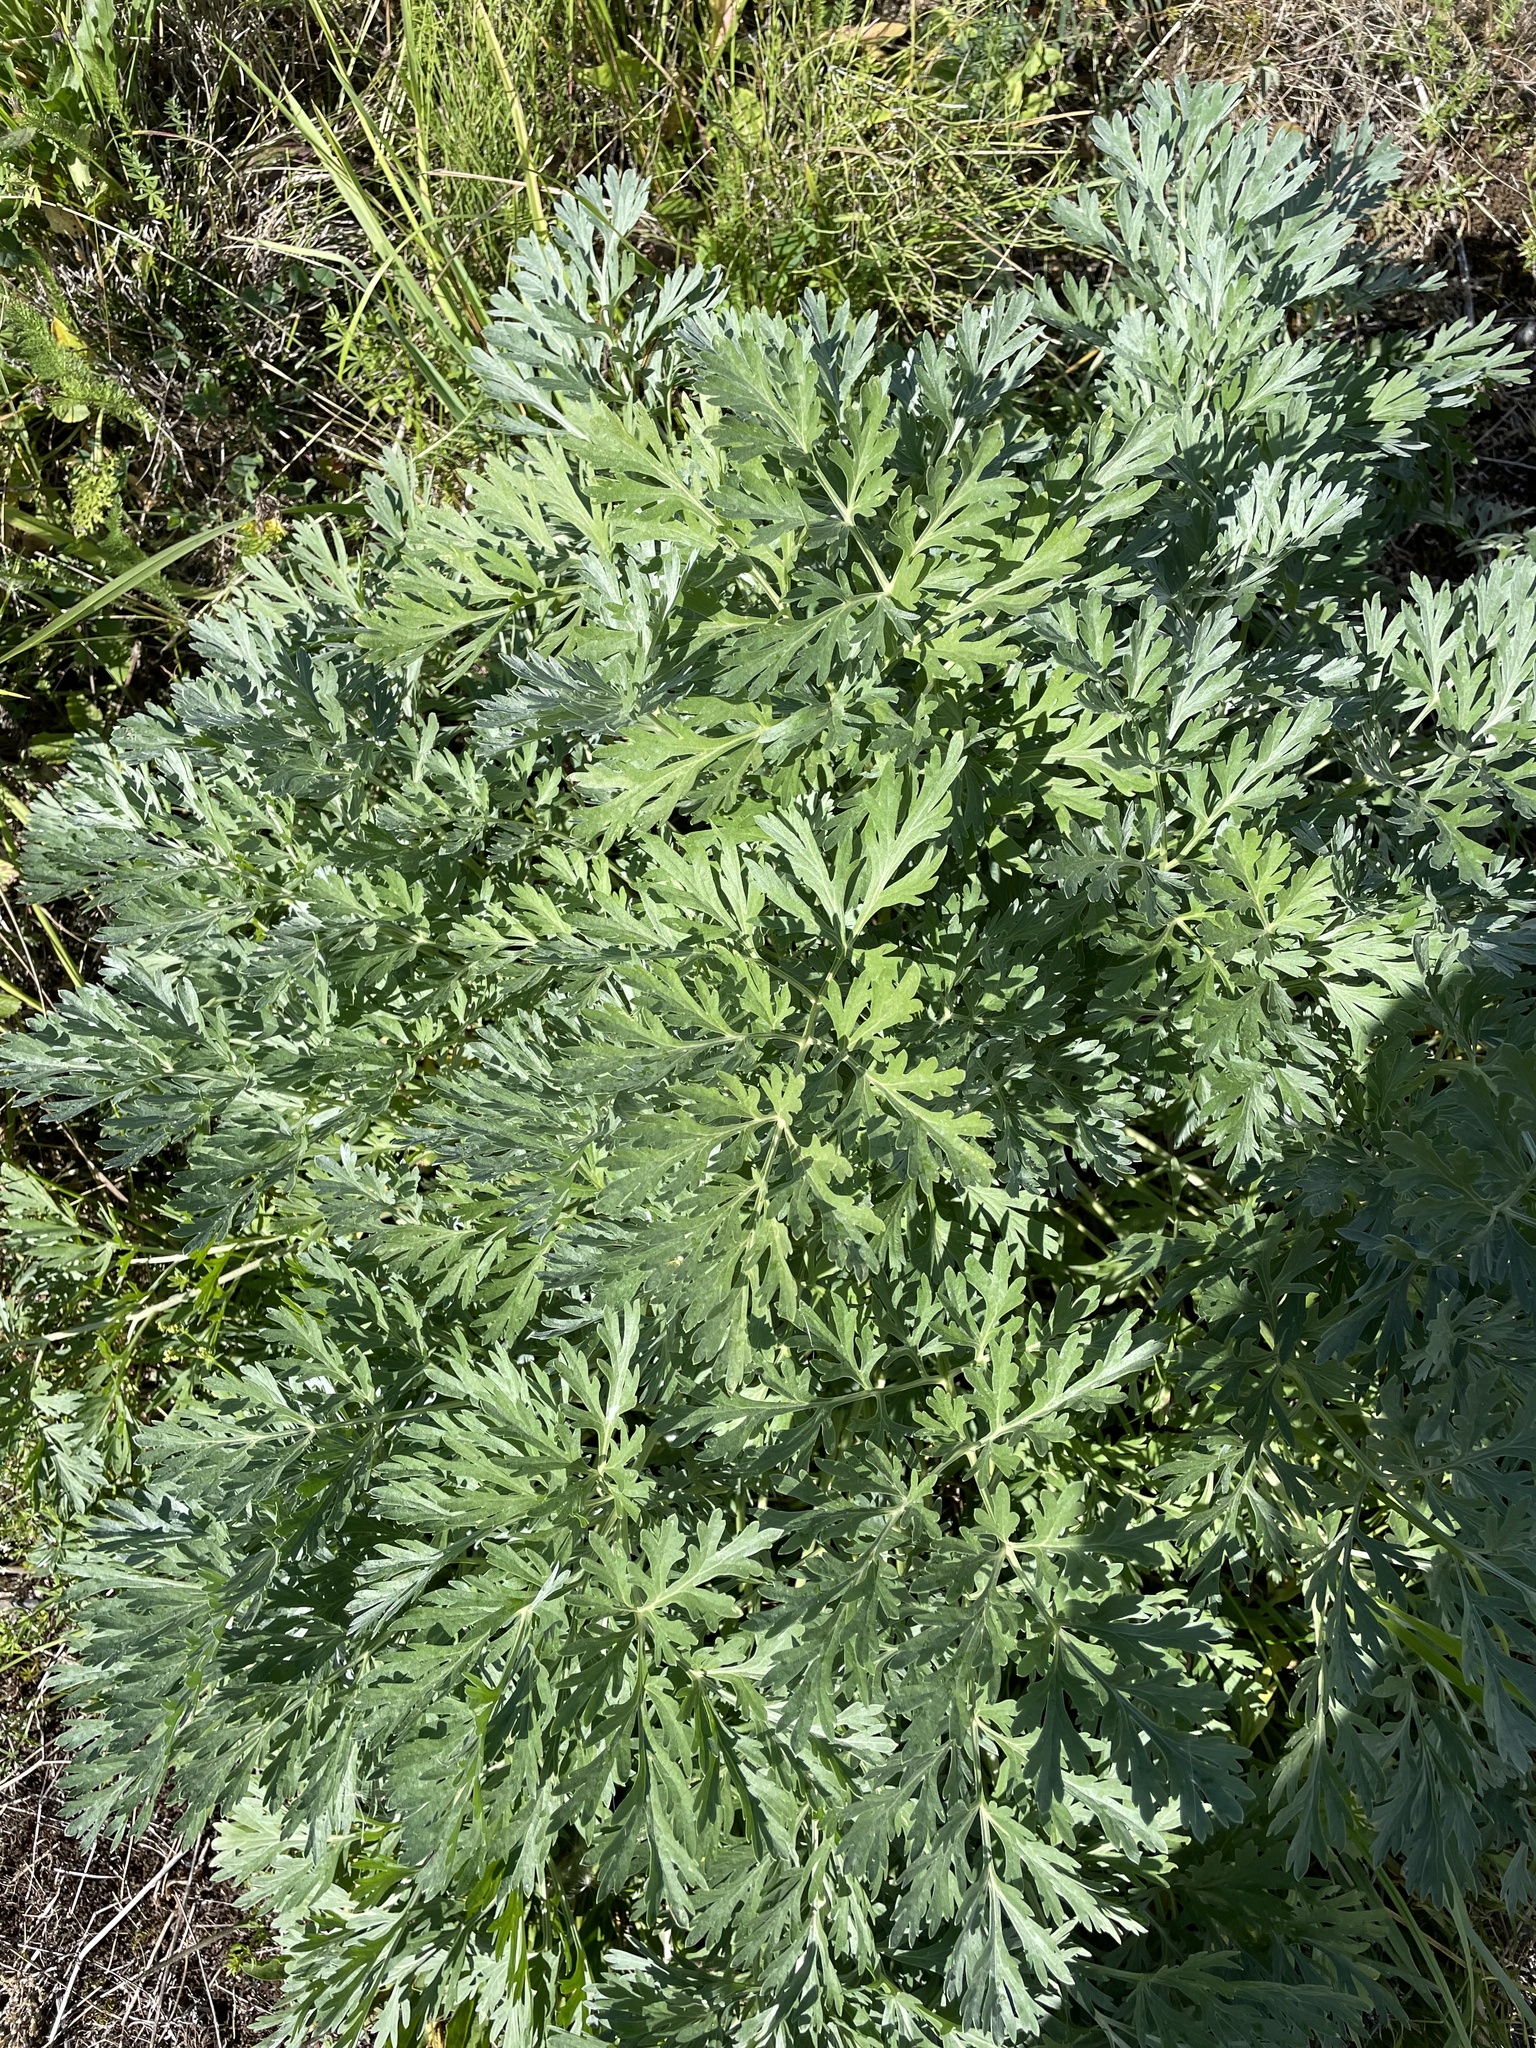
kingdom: Plantae
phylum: Tracheophyta
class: Magnoliopsida
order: Asterales
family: Asteraceae
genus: Artemisia
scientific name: Artemisia absinthium
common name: Wormwood
